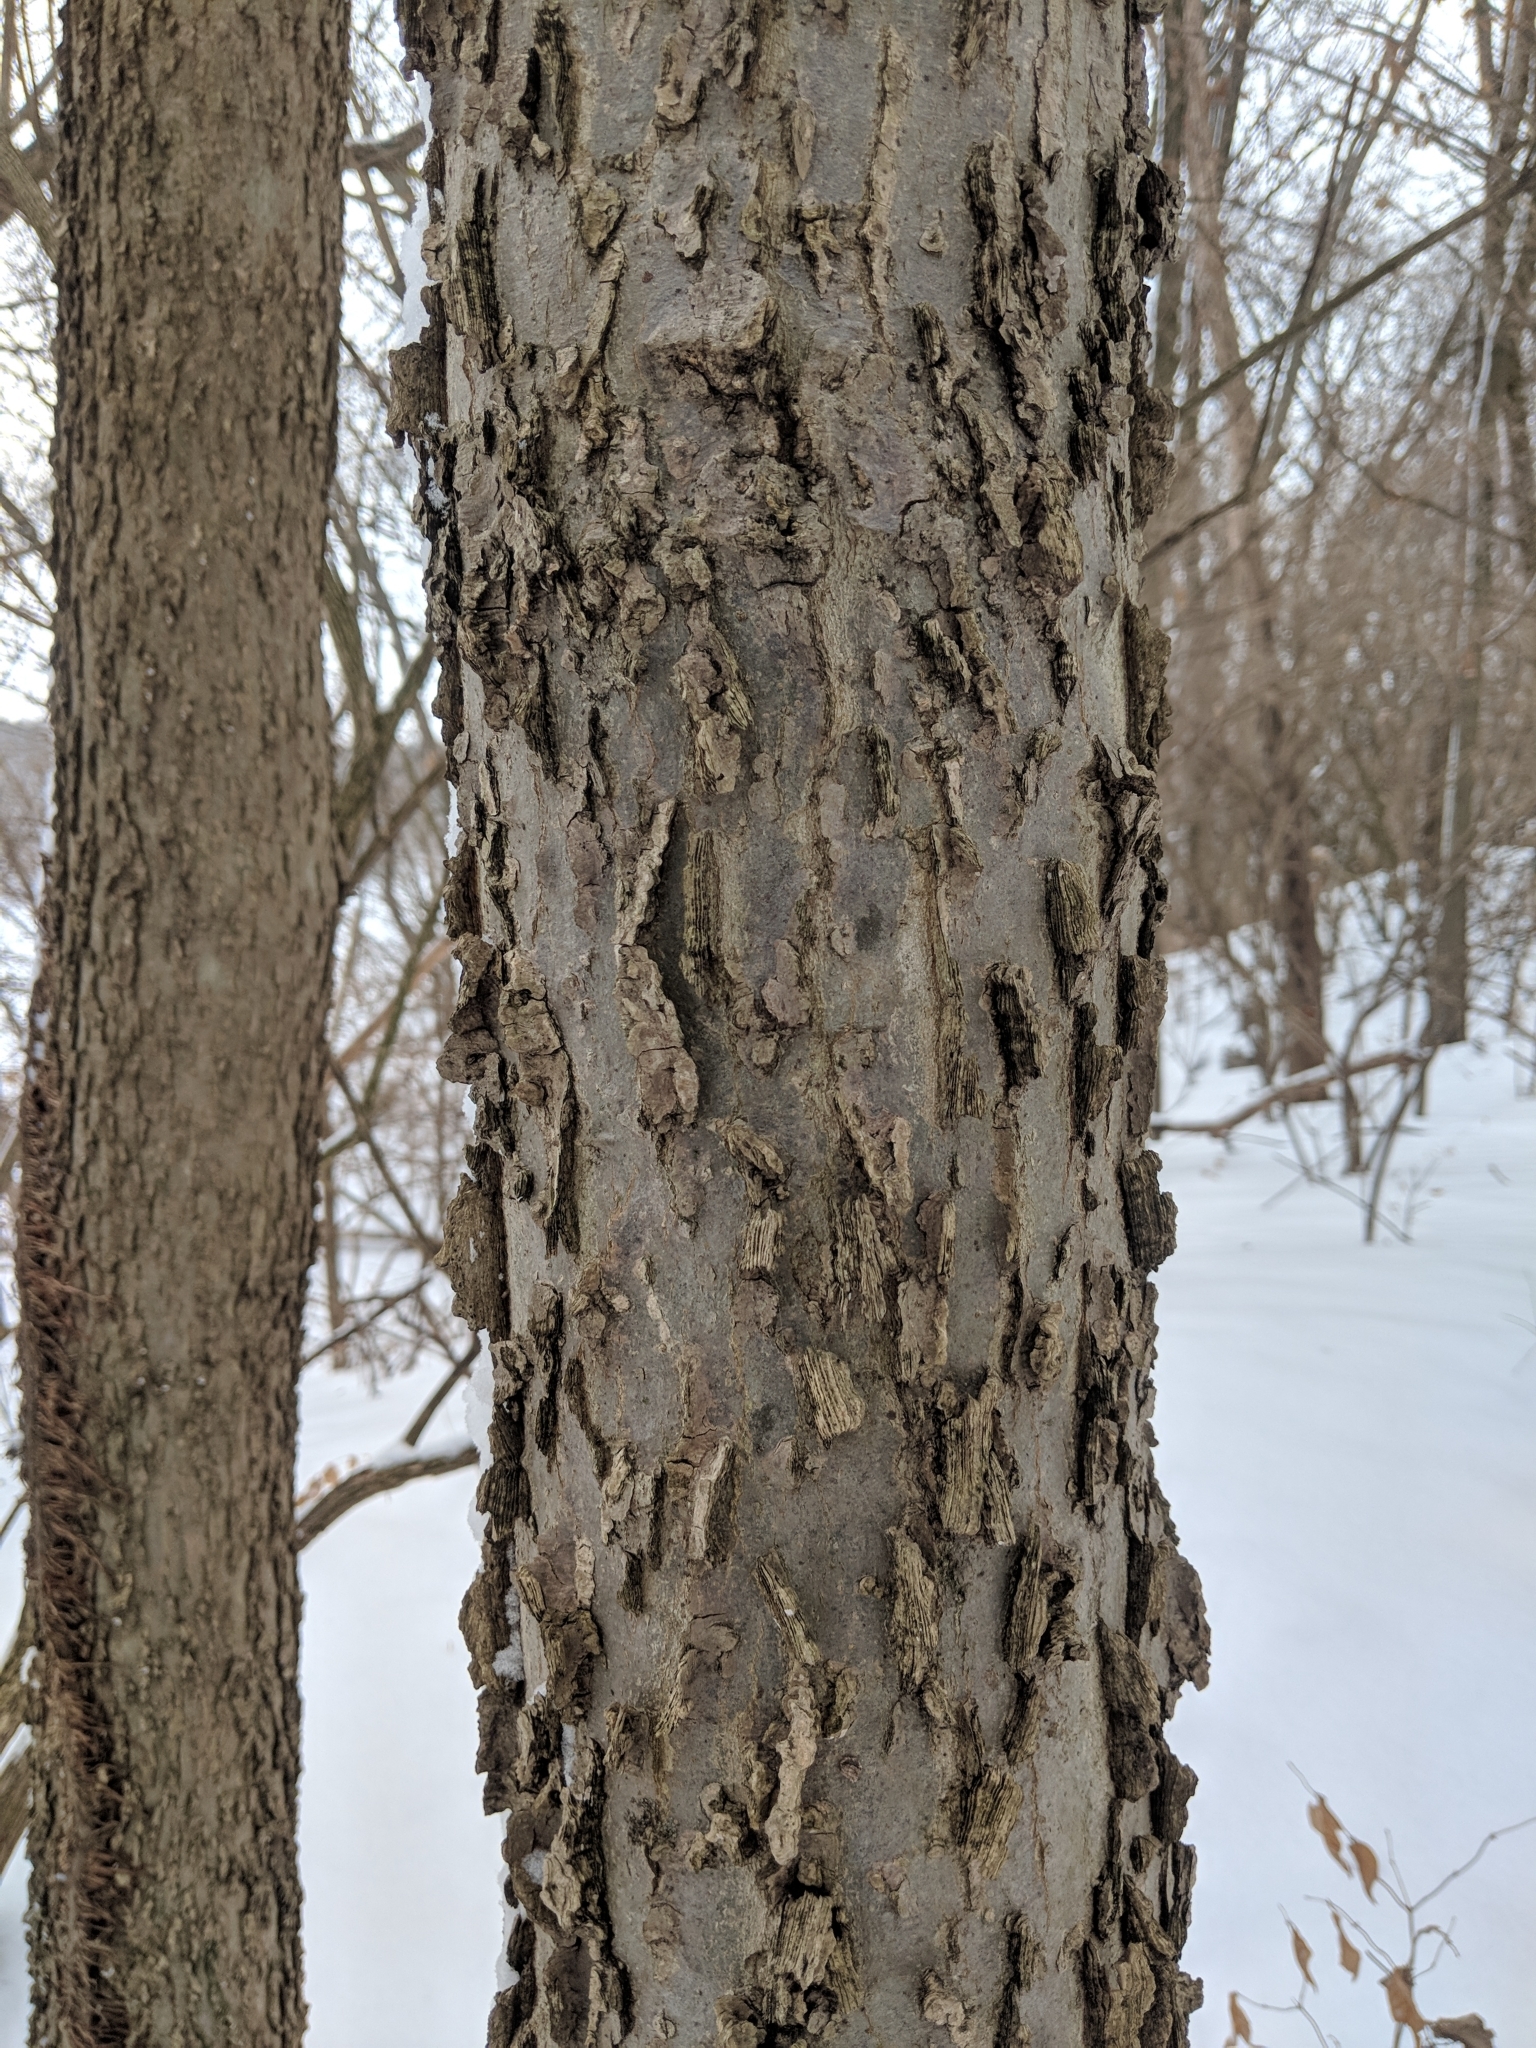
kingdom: Plantae
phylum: Tracheophyta
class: Magnoliopsida
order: Rosales
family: Cannabaceae
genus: Celtis
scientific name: Celtis occidentalis
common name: Common hackberry
